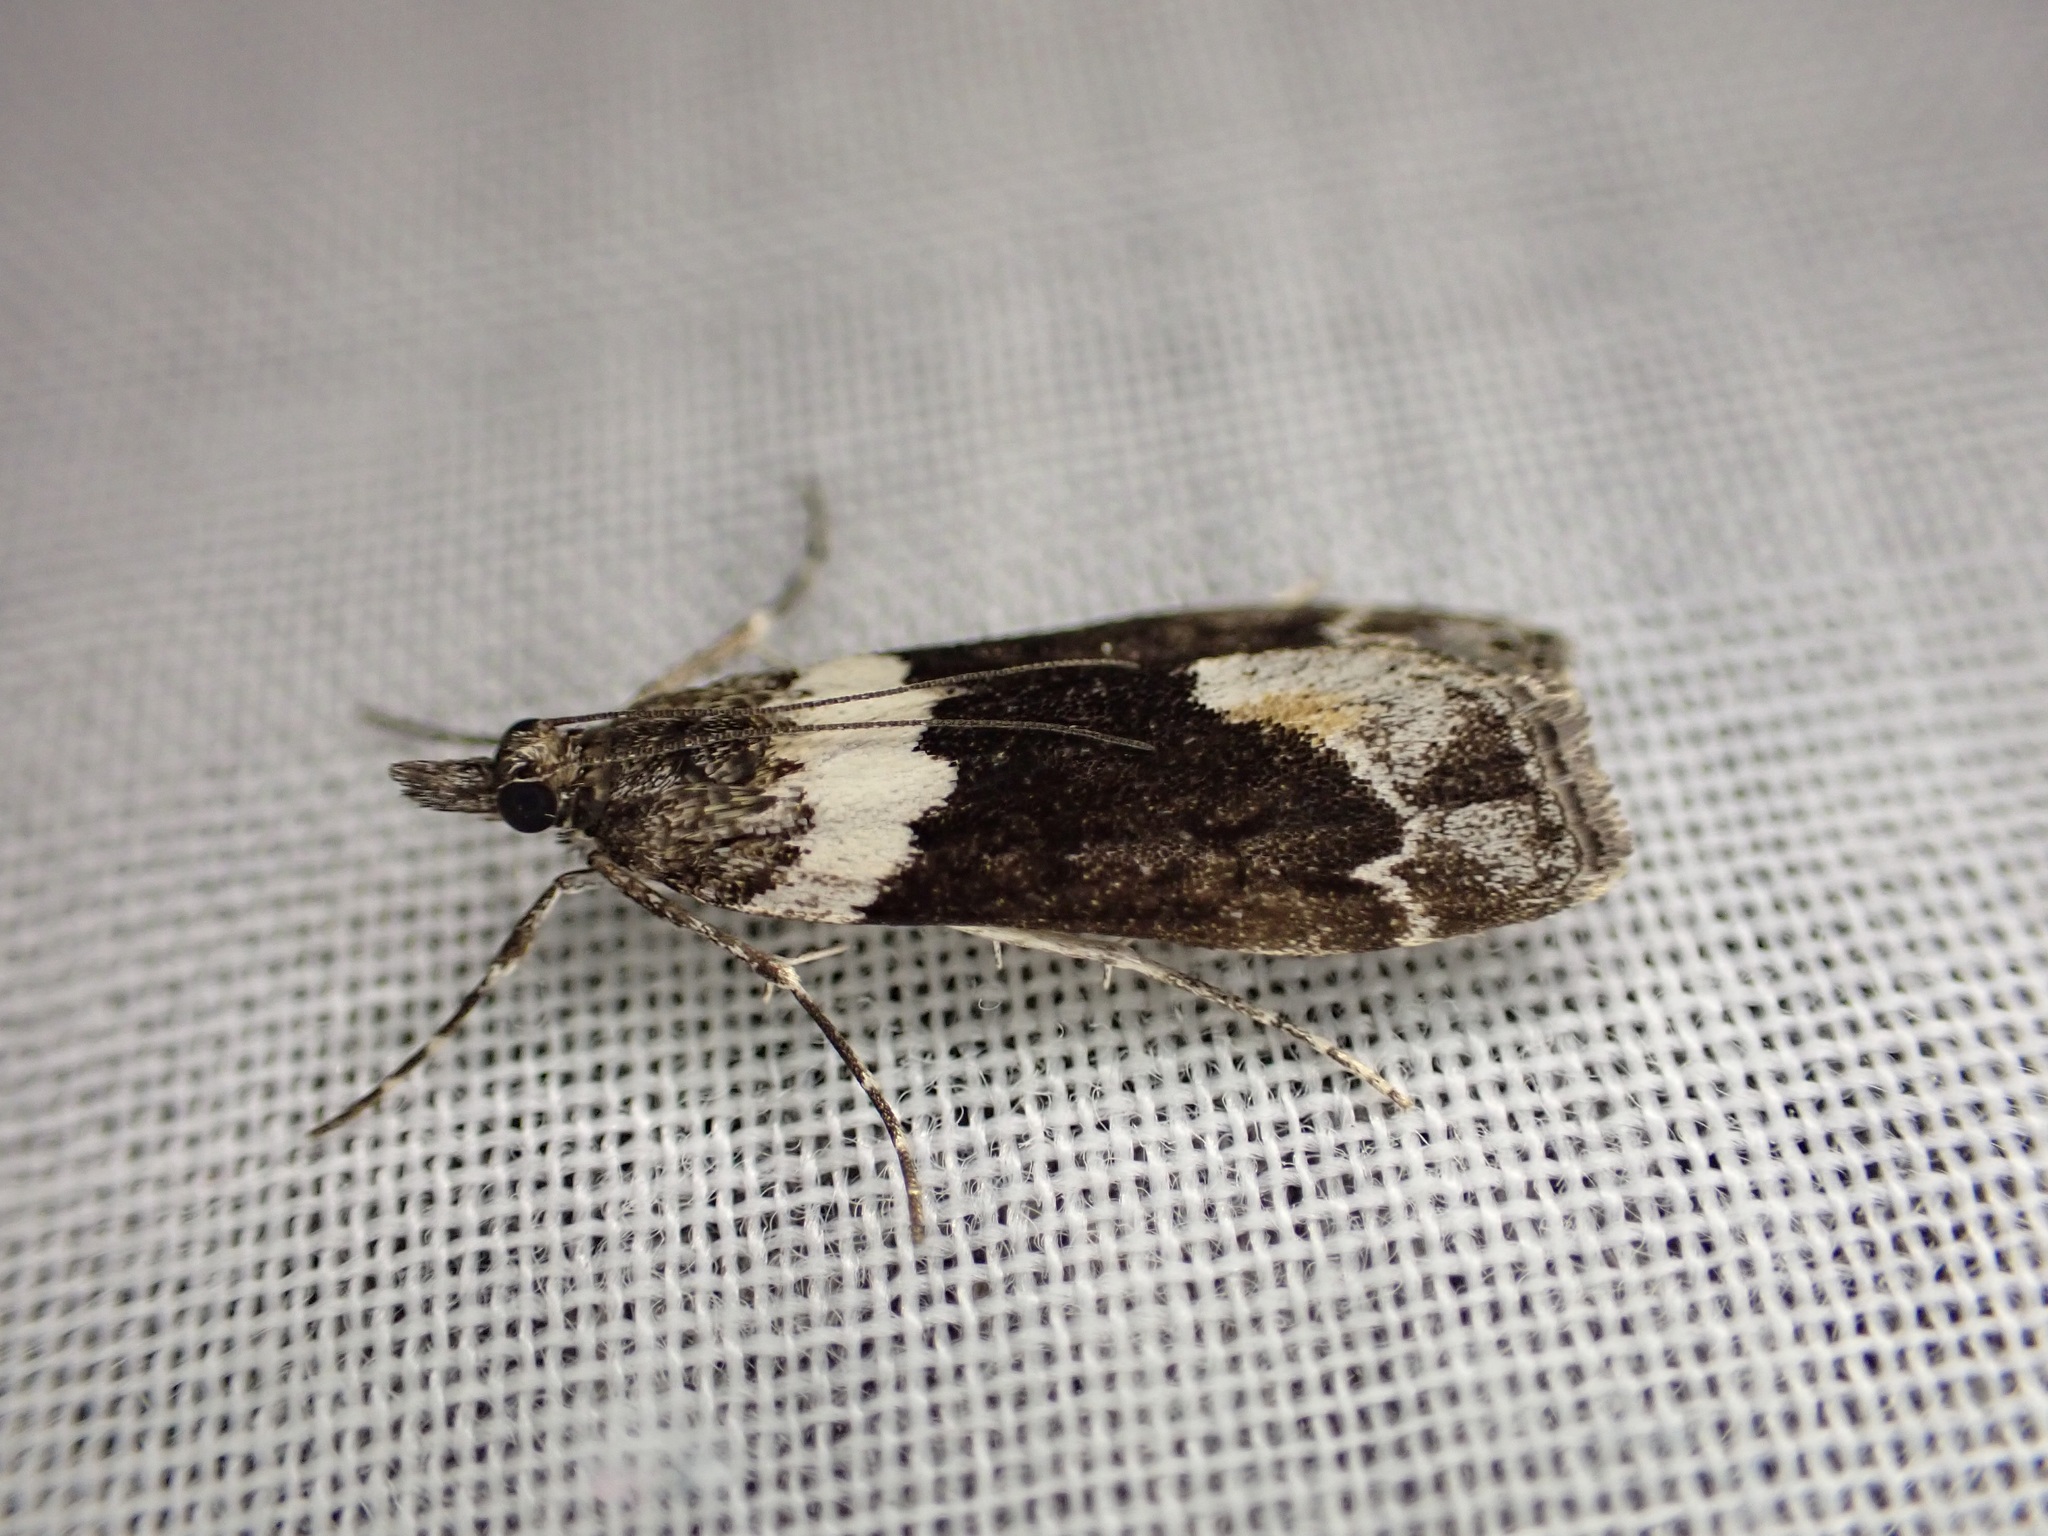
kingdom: Animalia
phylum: Arthropoda
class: Insecta
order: Lepidoptera
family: Crambidae
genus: Eudonia
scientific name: Eudonia submarginalis
